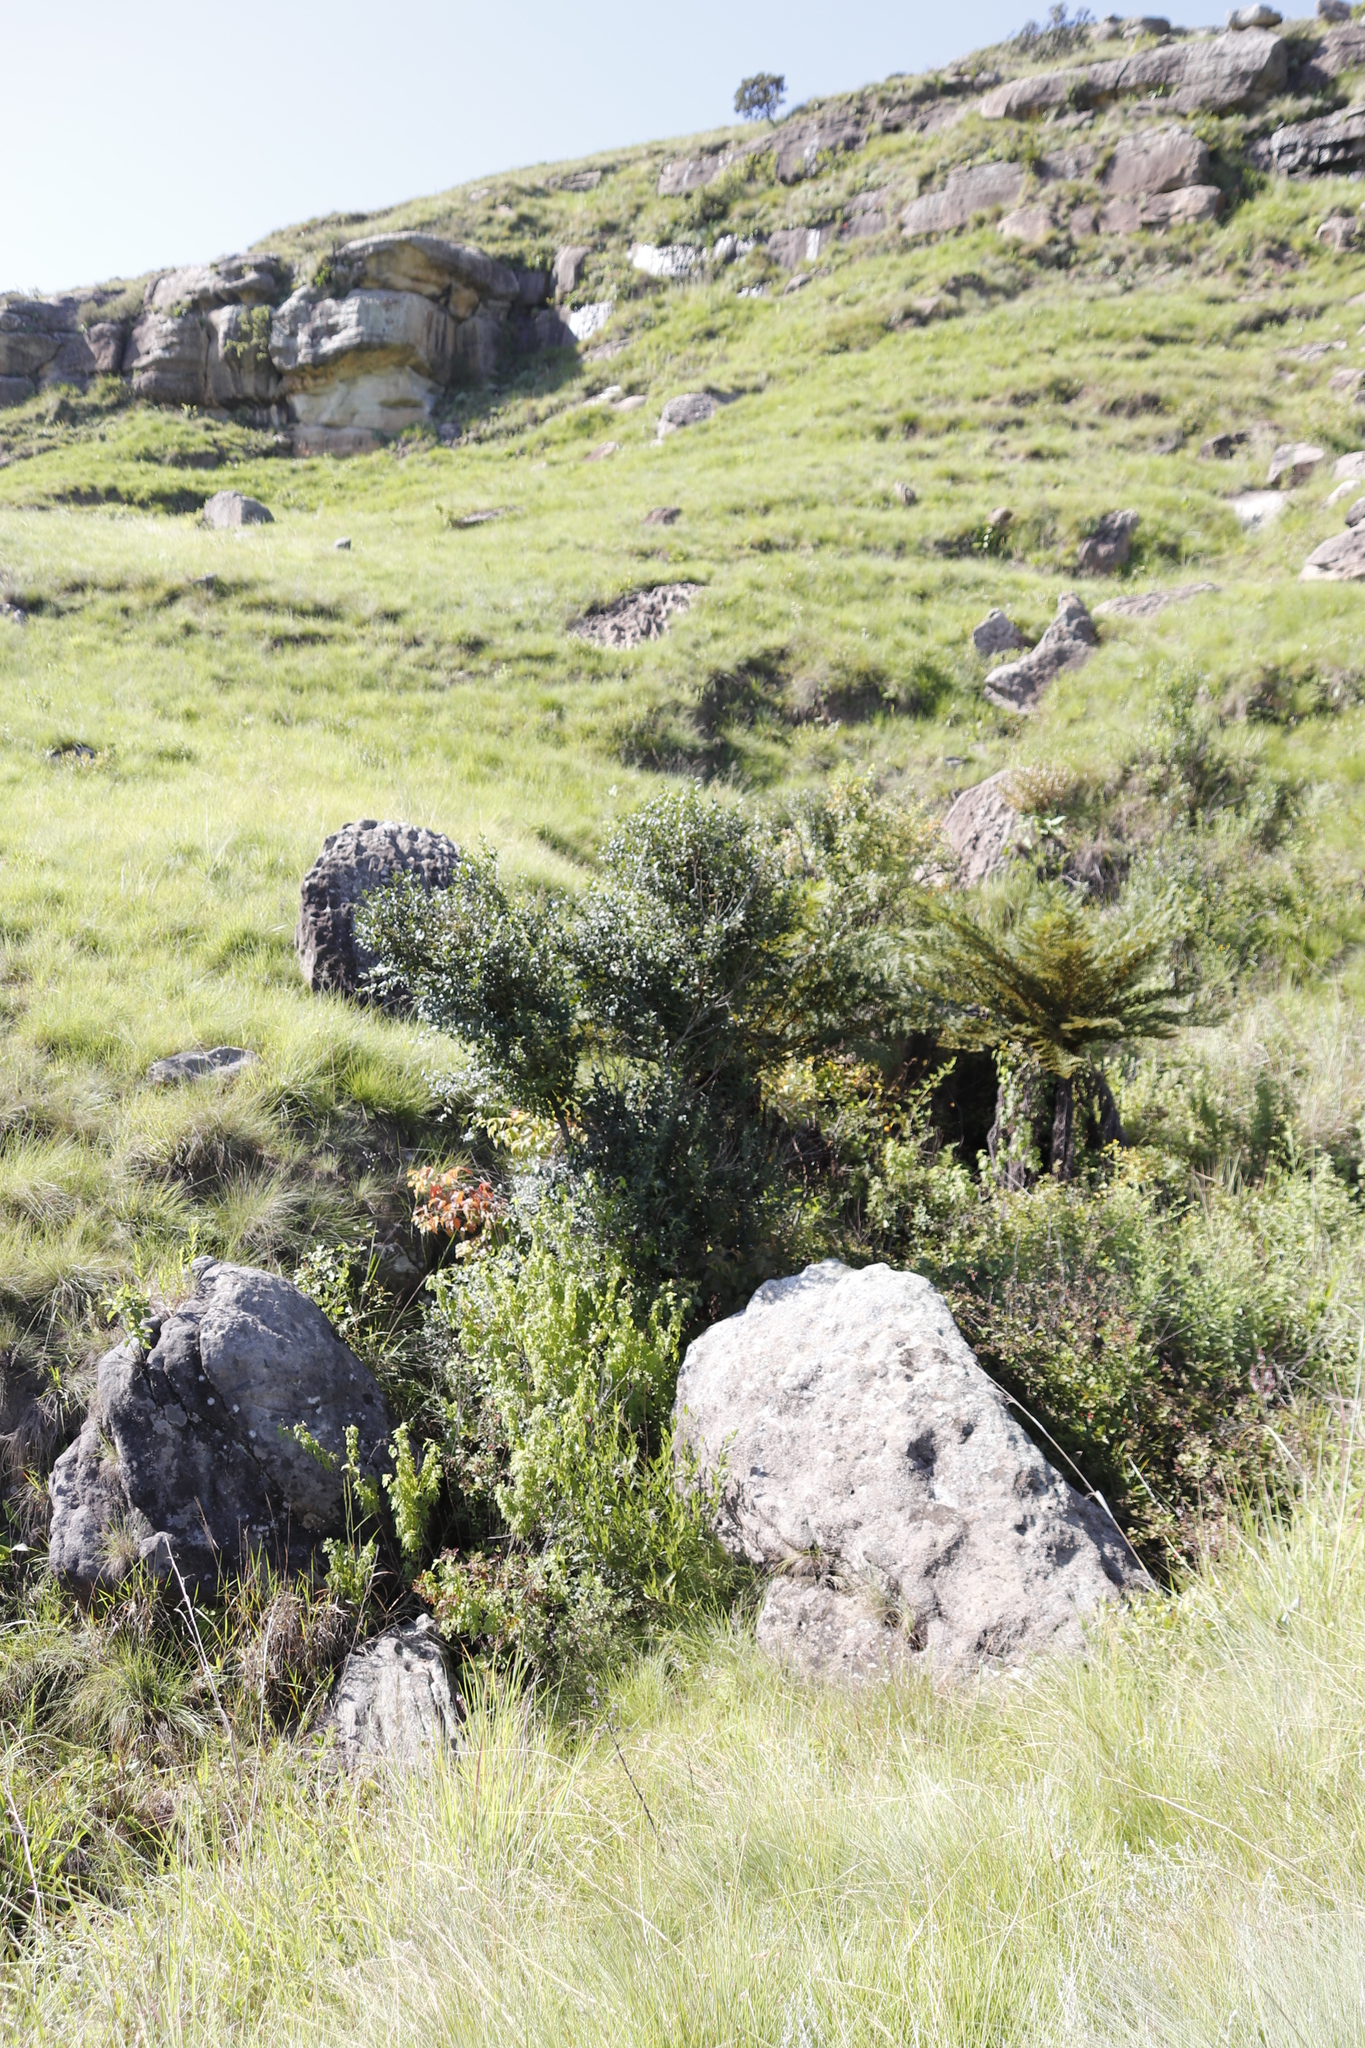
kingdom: Plantae
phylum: Tracheophyta
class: Polypodiopsida
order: Cyatheales
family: Cyatheaceae
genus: Alsophila
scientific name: Alsophila dregei
